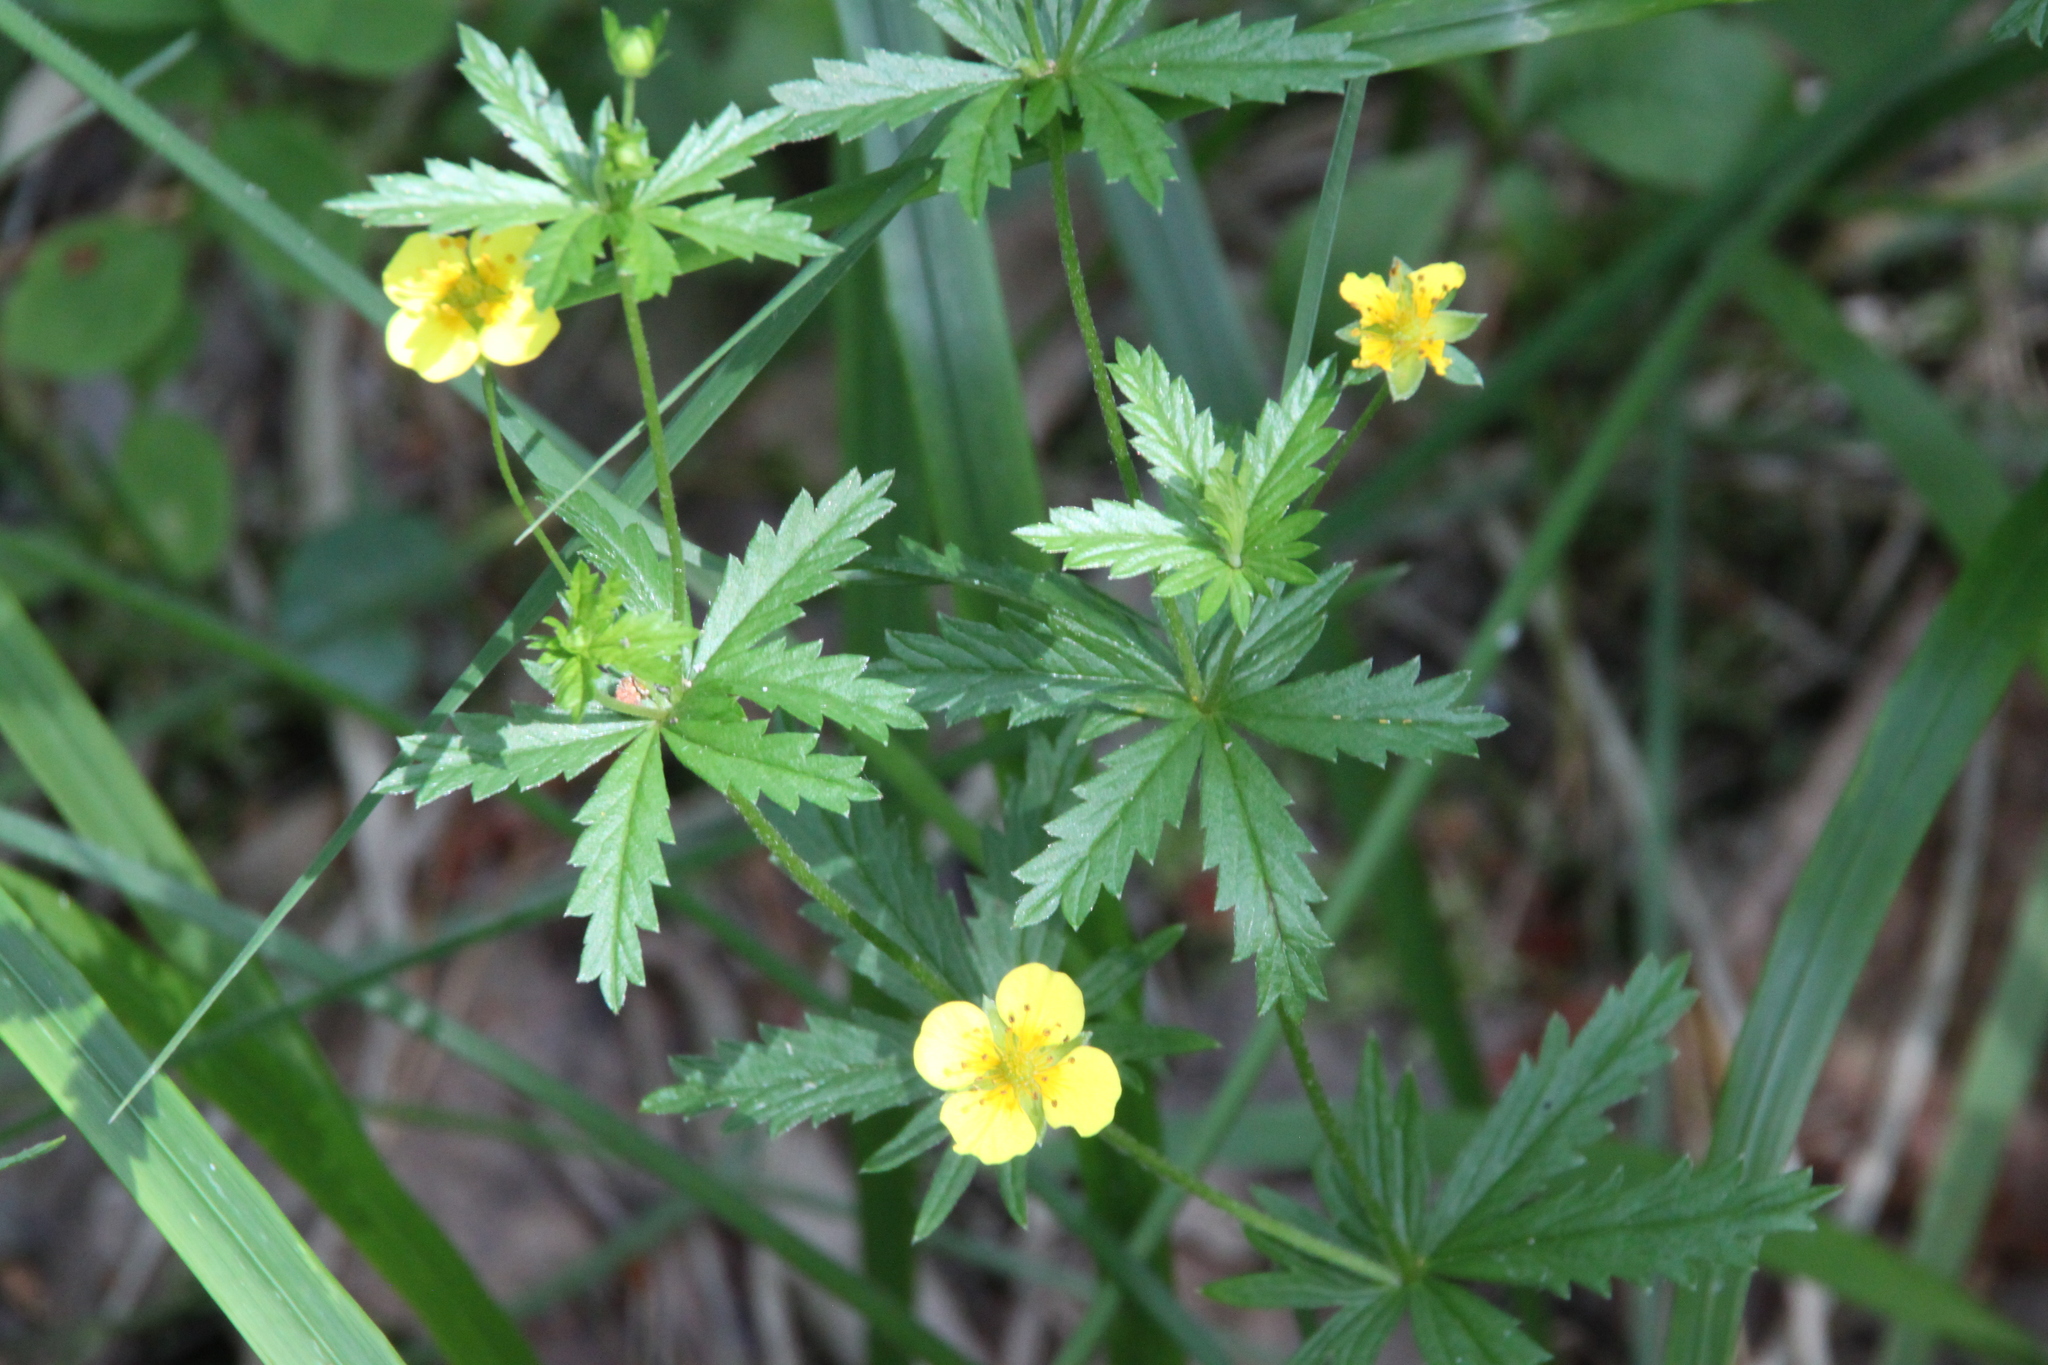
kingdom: Plantae
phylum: Tracheophyta
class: Magnoliopsida
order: Rosales
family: Rosaceae
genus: Potentilla
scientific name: Potentilla erecta
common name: Tormentil
